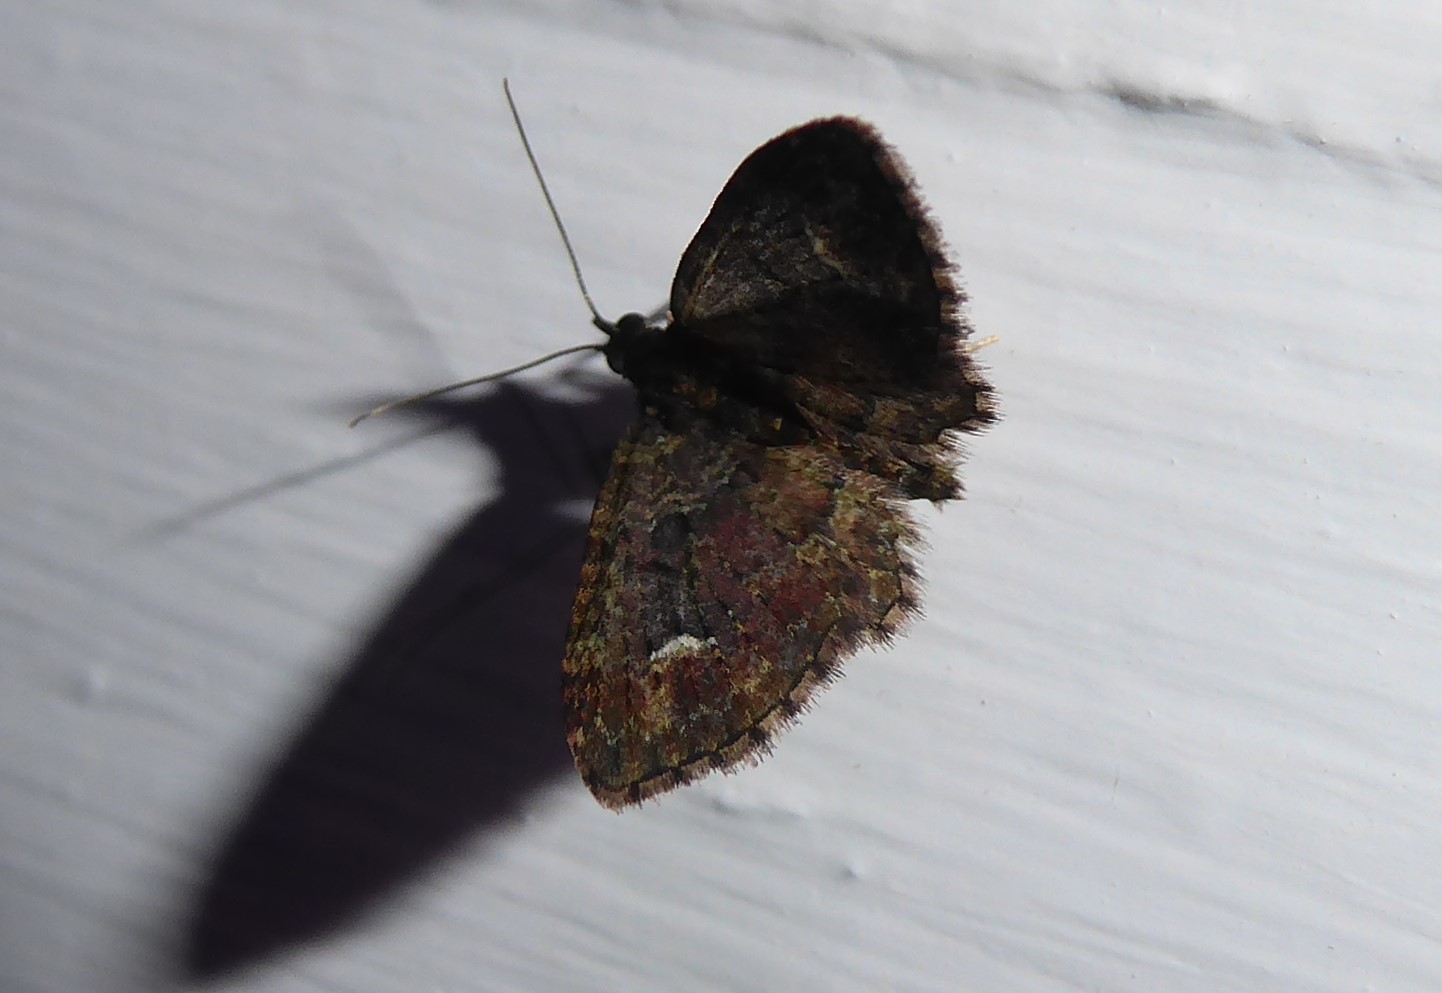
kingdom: Animalia
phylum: Arthropoda
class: Insecta
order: Lepidoptera
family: Geometridae
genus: Pasiphilodes
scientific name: Pasiphilodes testulata
